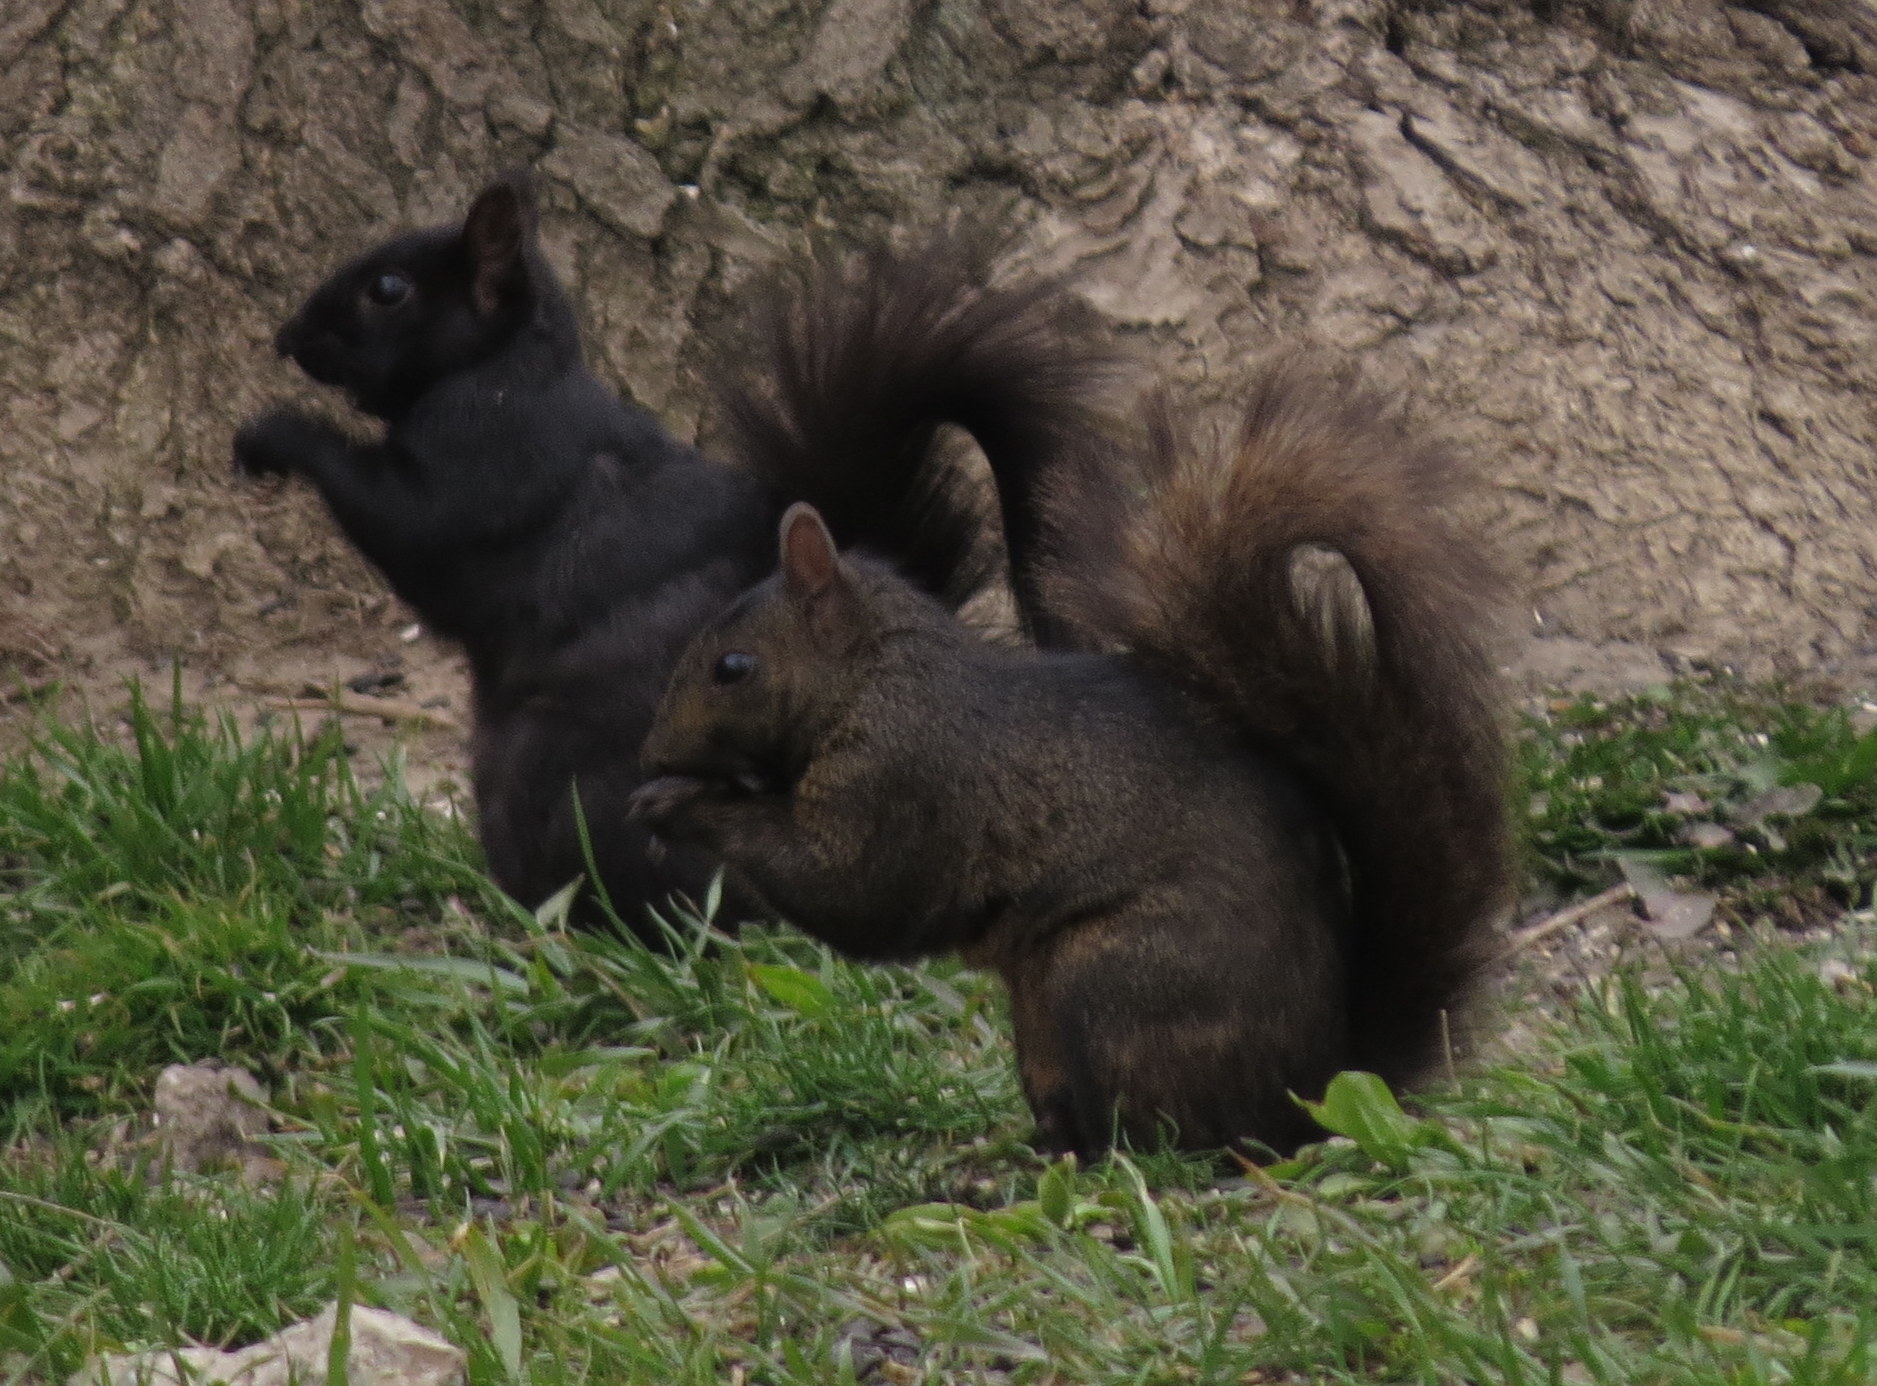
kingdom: Animalia
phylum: Chordata
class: Mammalia
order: Rodentia
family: Sciuridae
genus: Sciurus
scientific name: Sciurus carolinensis
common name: Eastern gray squirrel
